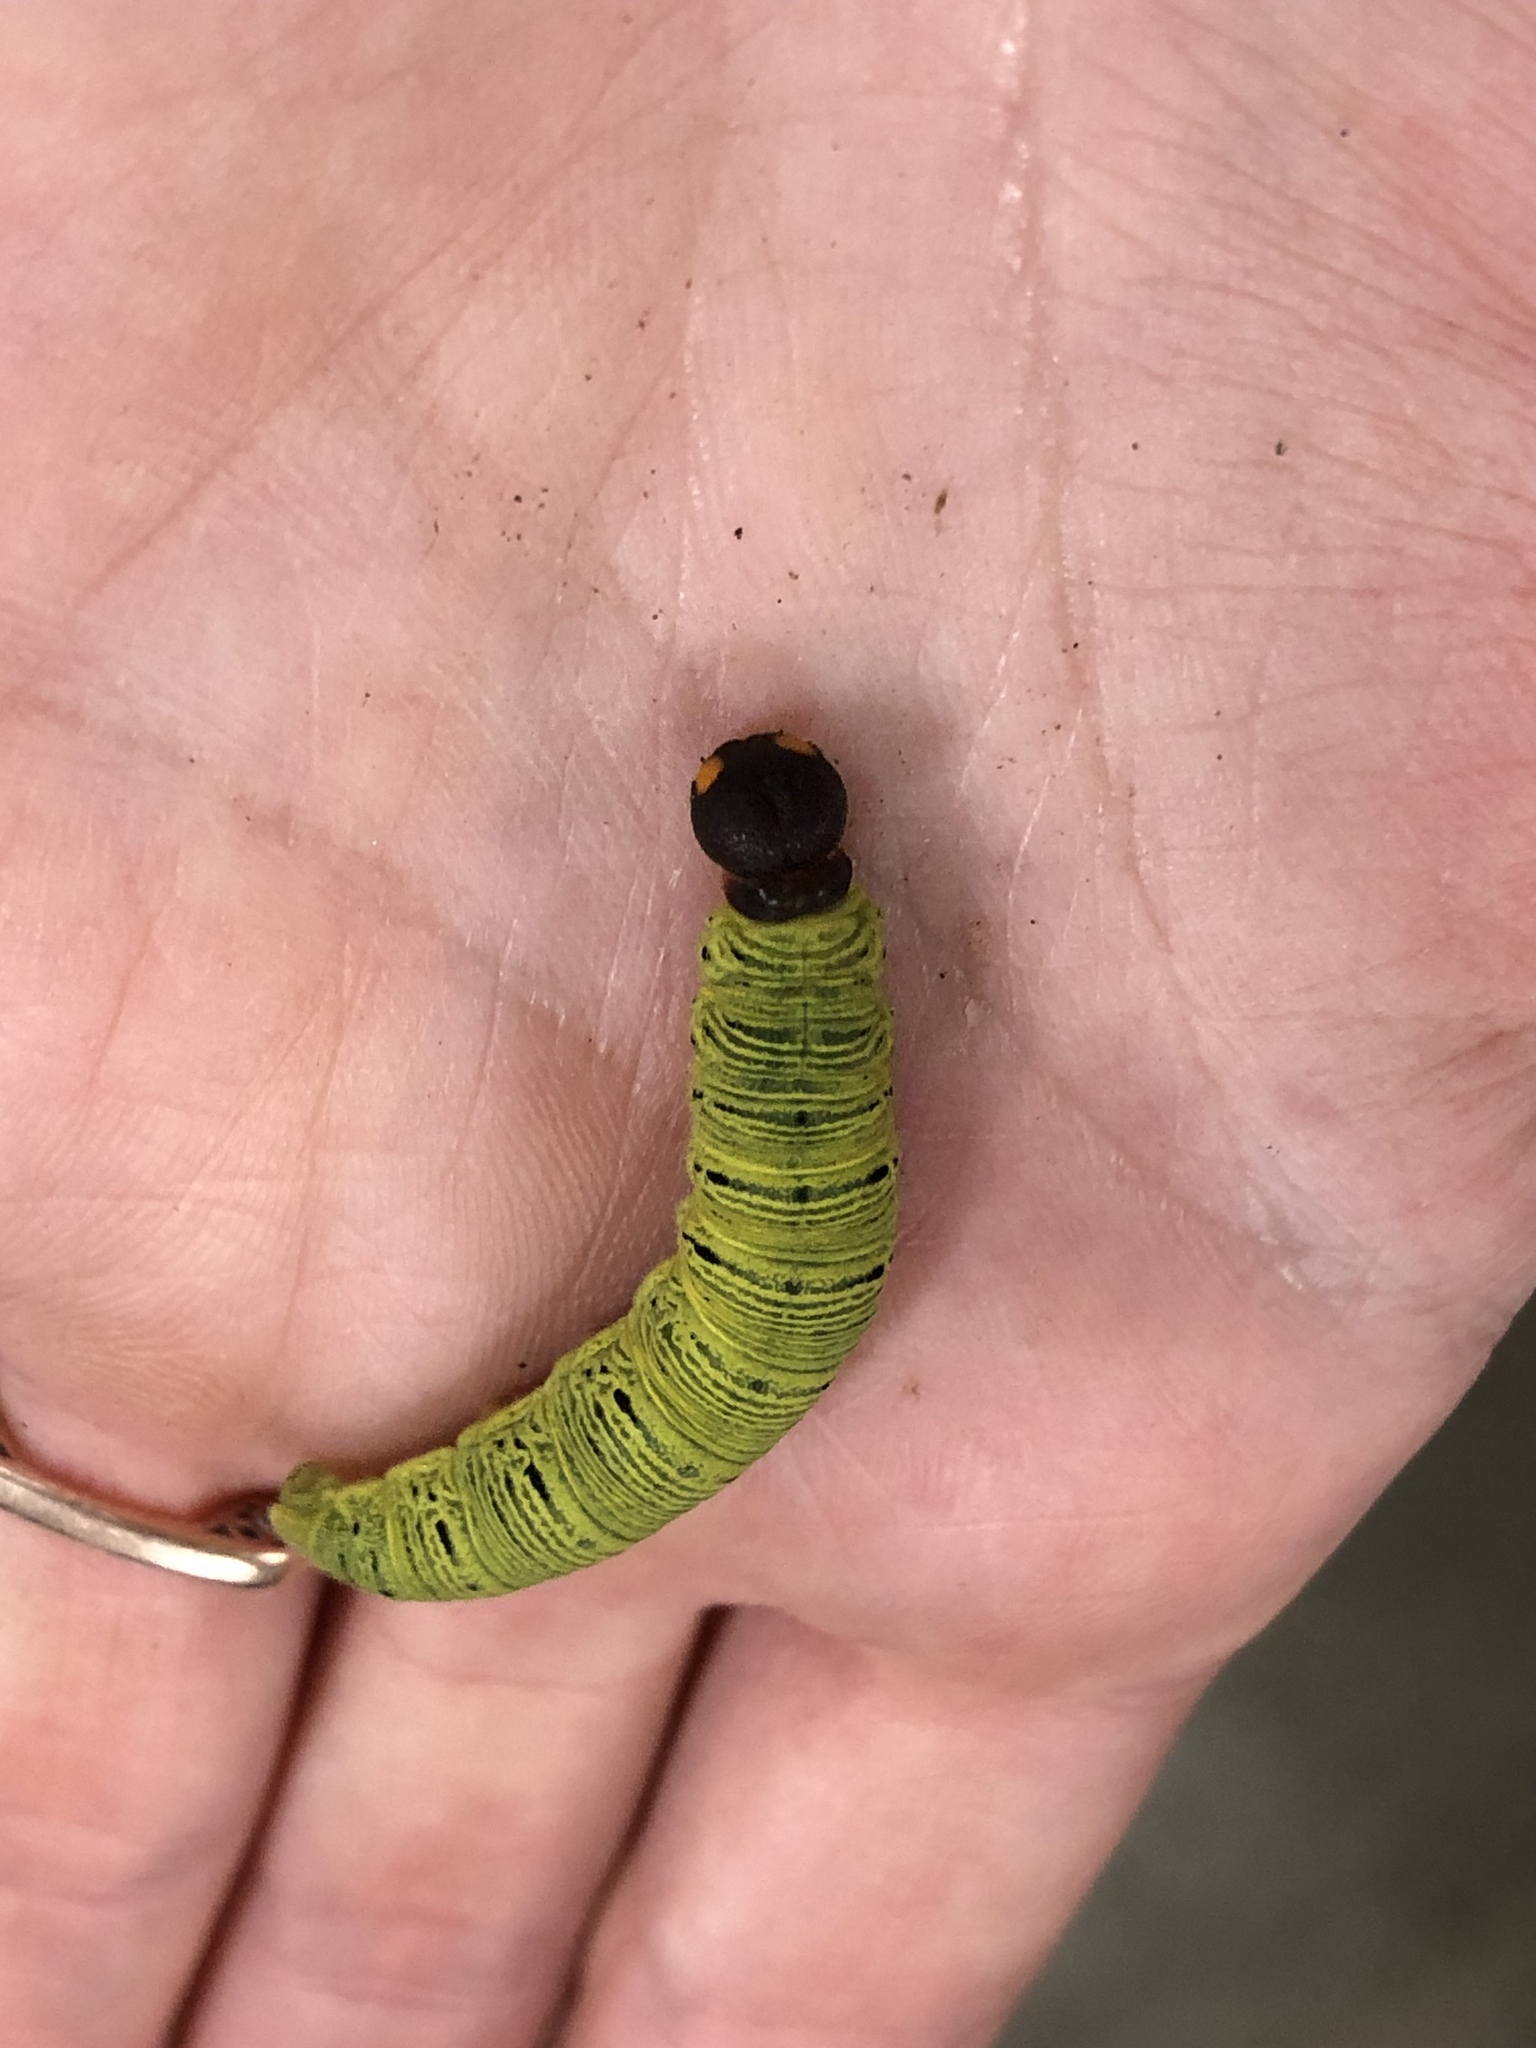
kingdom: Animalia
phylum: Arthropoda
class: Insecta
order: Lepidoptera
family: Hesperiidae
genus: Epargyreus
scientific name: Epargyreus clarus
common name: Silver-spotted skipper
